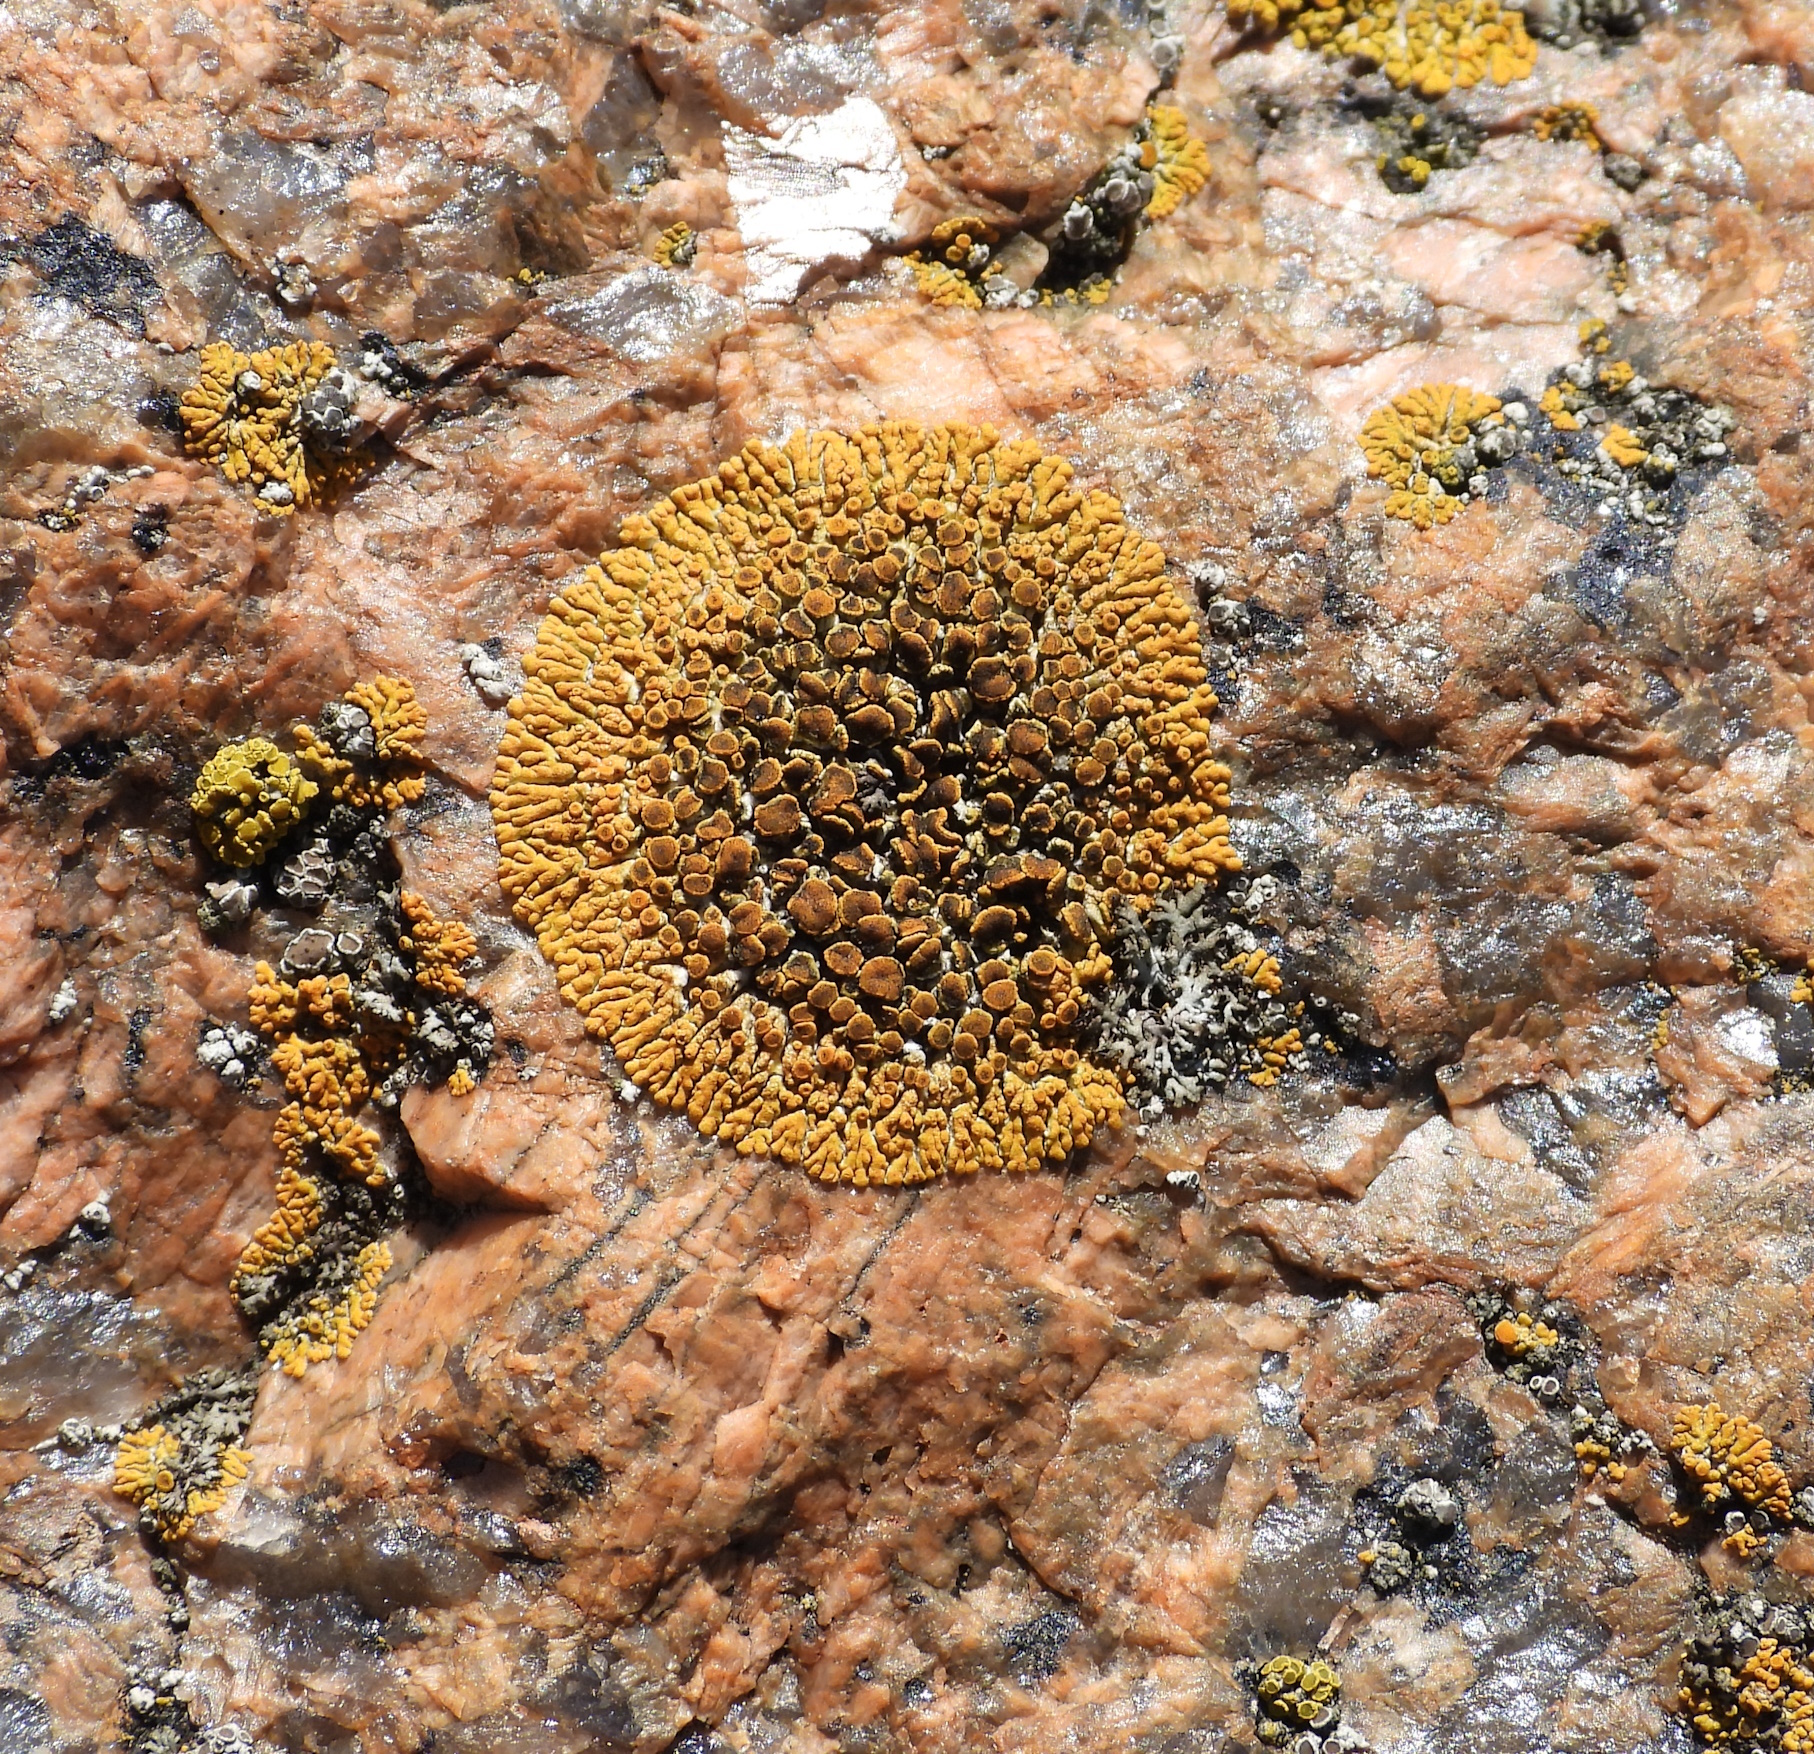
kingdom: Fungi
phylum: Ascomycota
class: Lecanoromycetes
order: Teloschistales
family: Teloschistaceae
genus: Athallia
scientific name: Athallia scopularis
